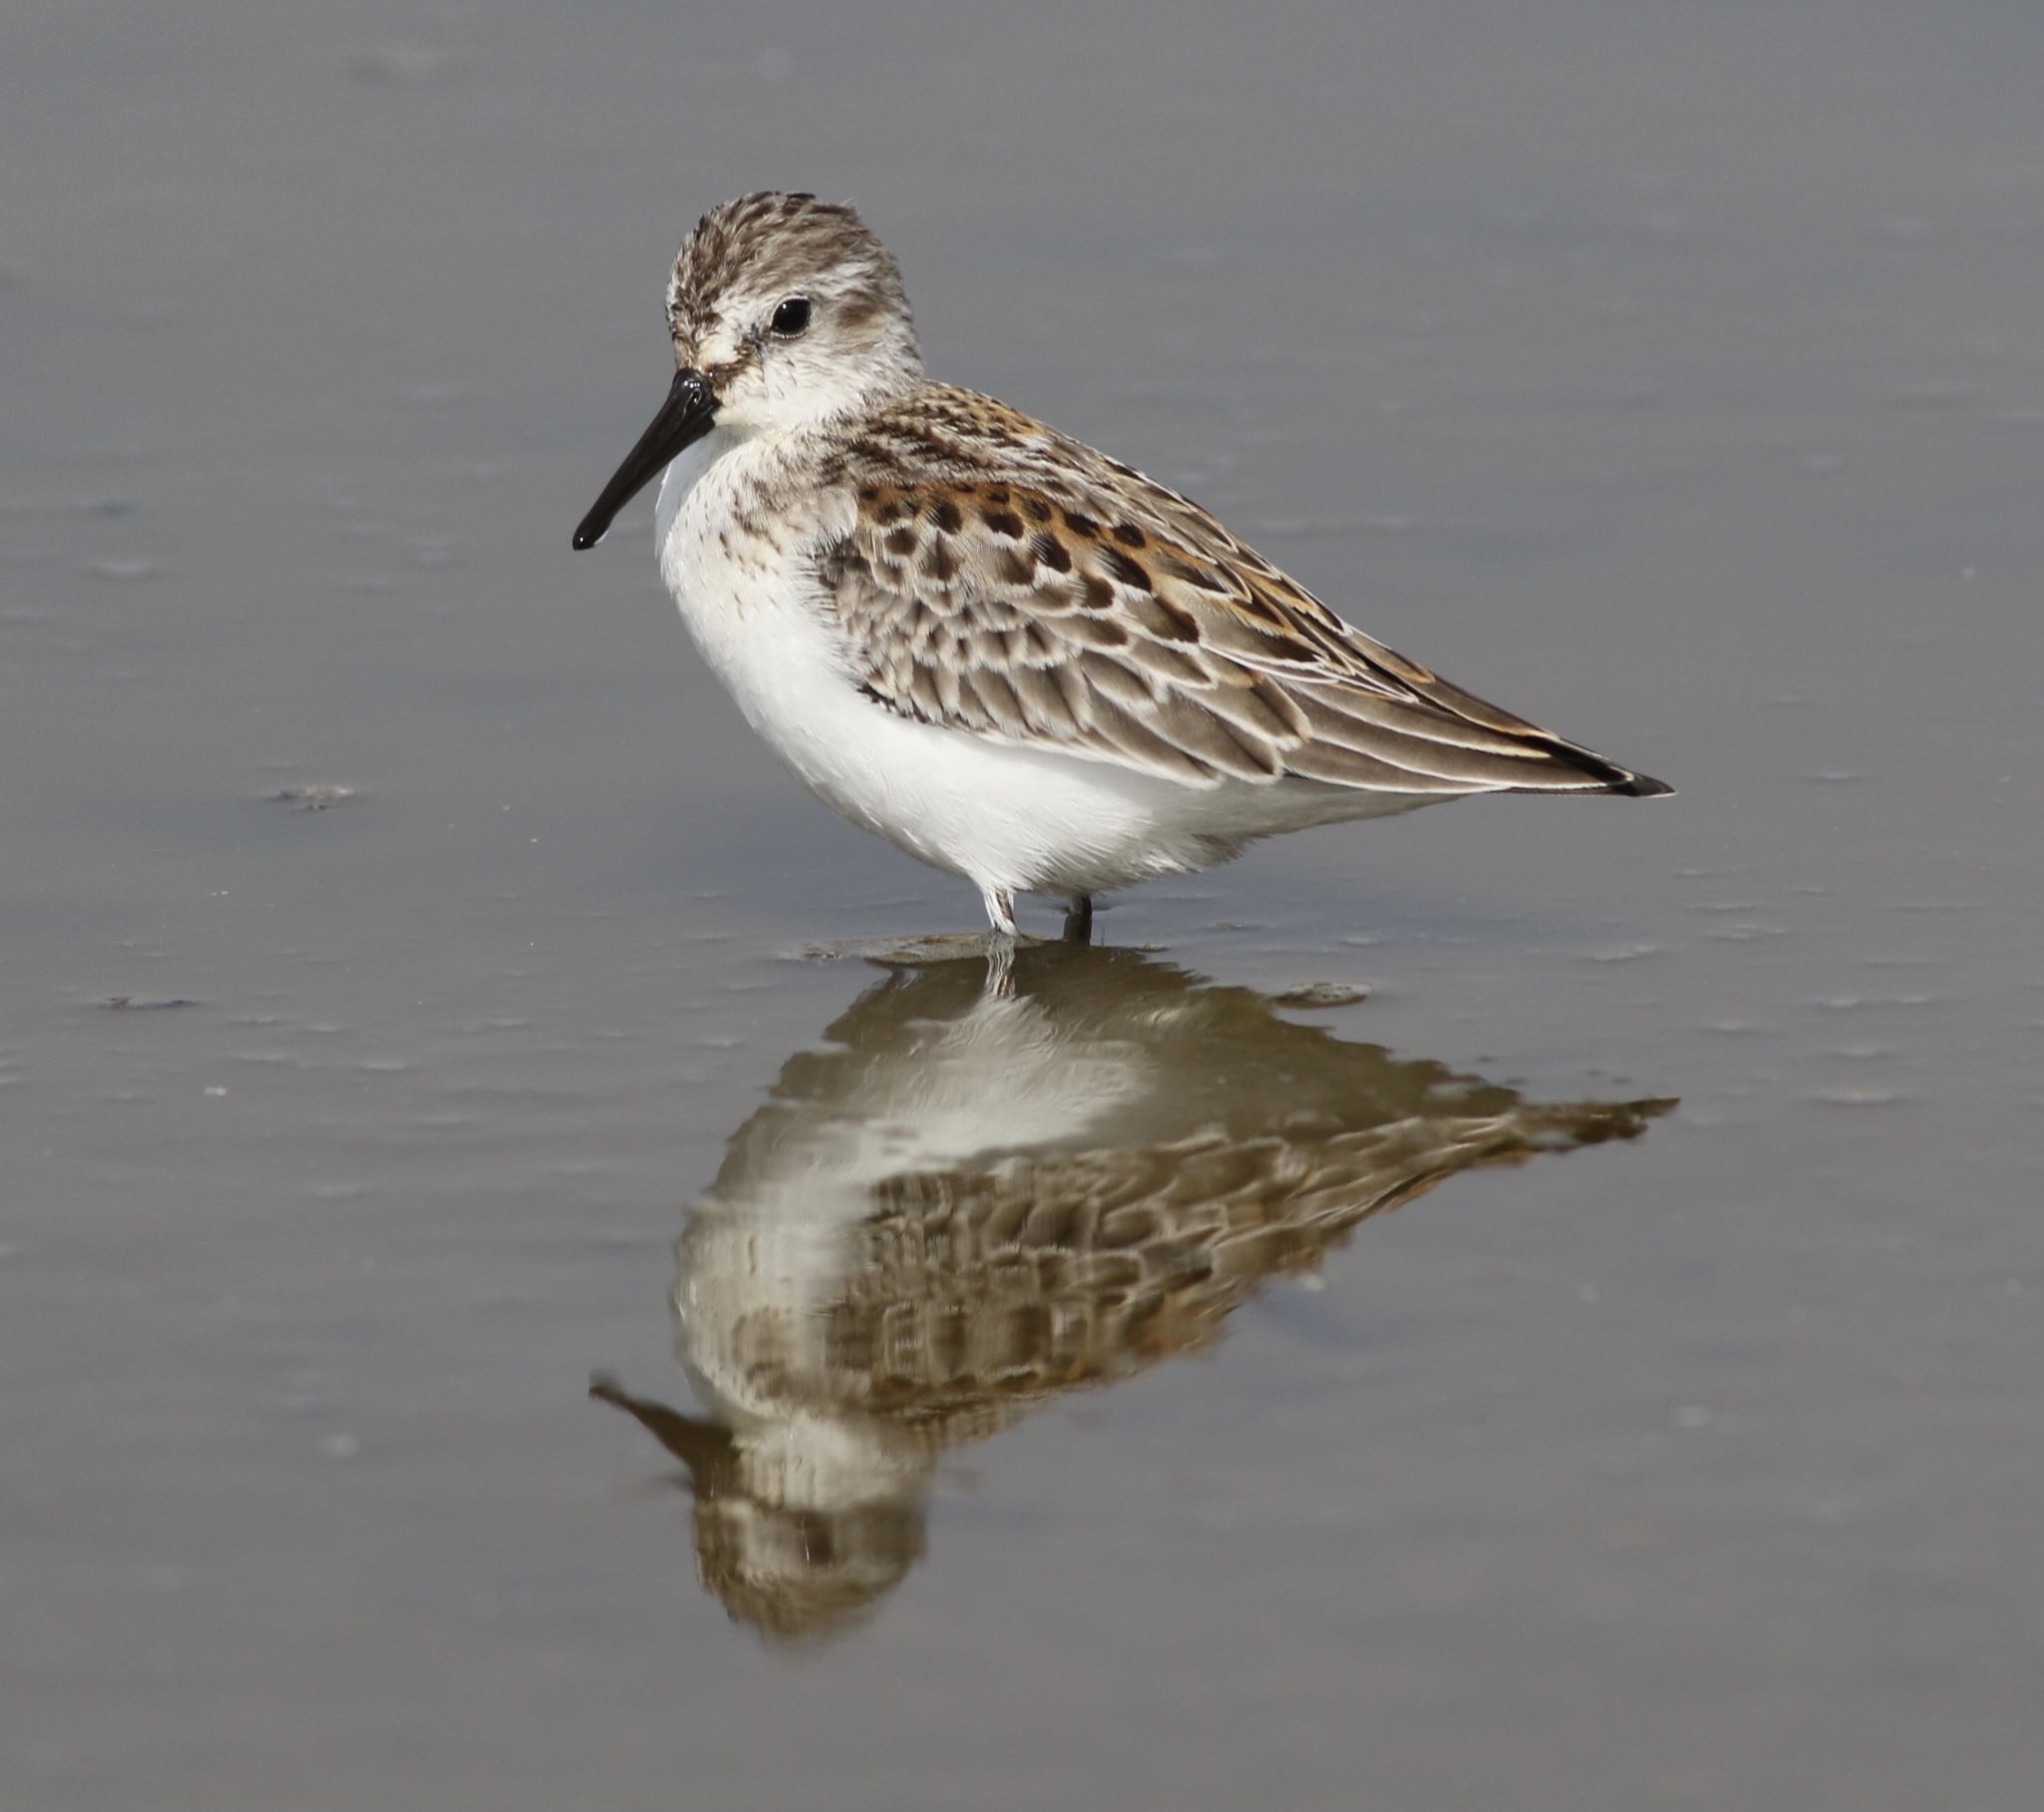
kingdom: Animalia
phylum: Chordata
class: Aves
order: Charadriiformes
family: Scolopacidae
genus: Calidris
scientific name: Calidris mauri
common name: Western sandpiper
